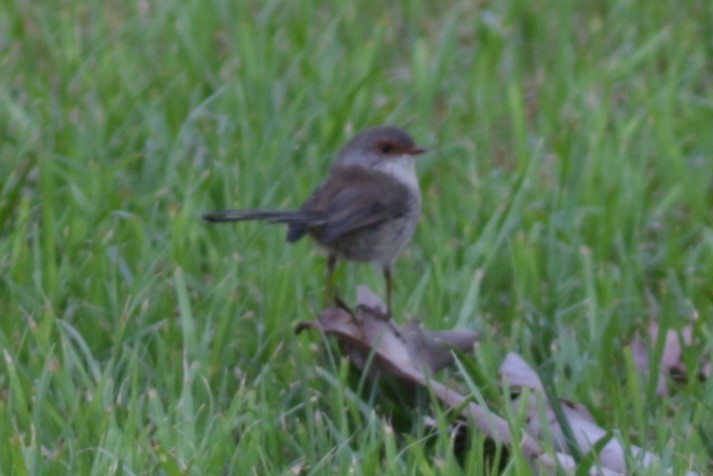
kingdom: Animalia
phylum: Chordata
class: Aves
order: Passeriformes
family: Maluridae
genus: Malurus
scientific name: Malurus cyaneus
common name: Superb fairywren
